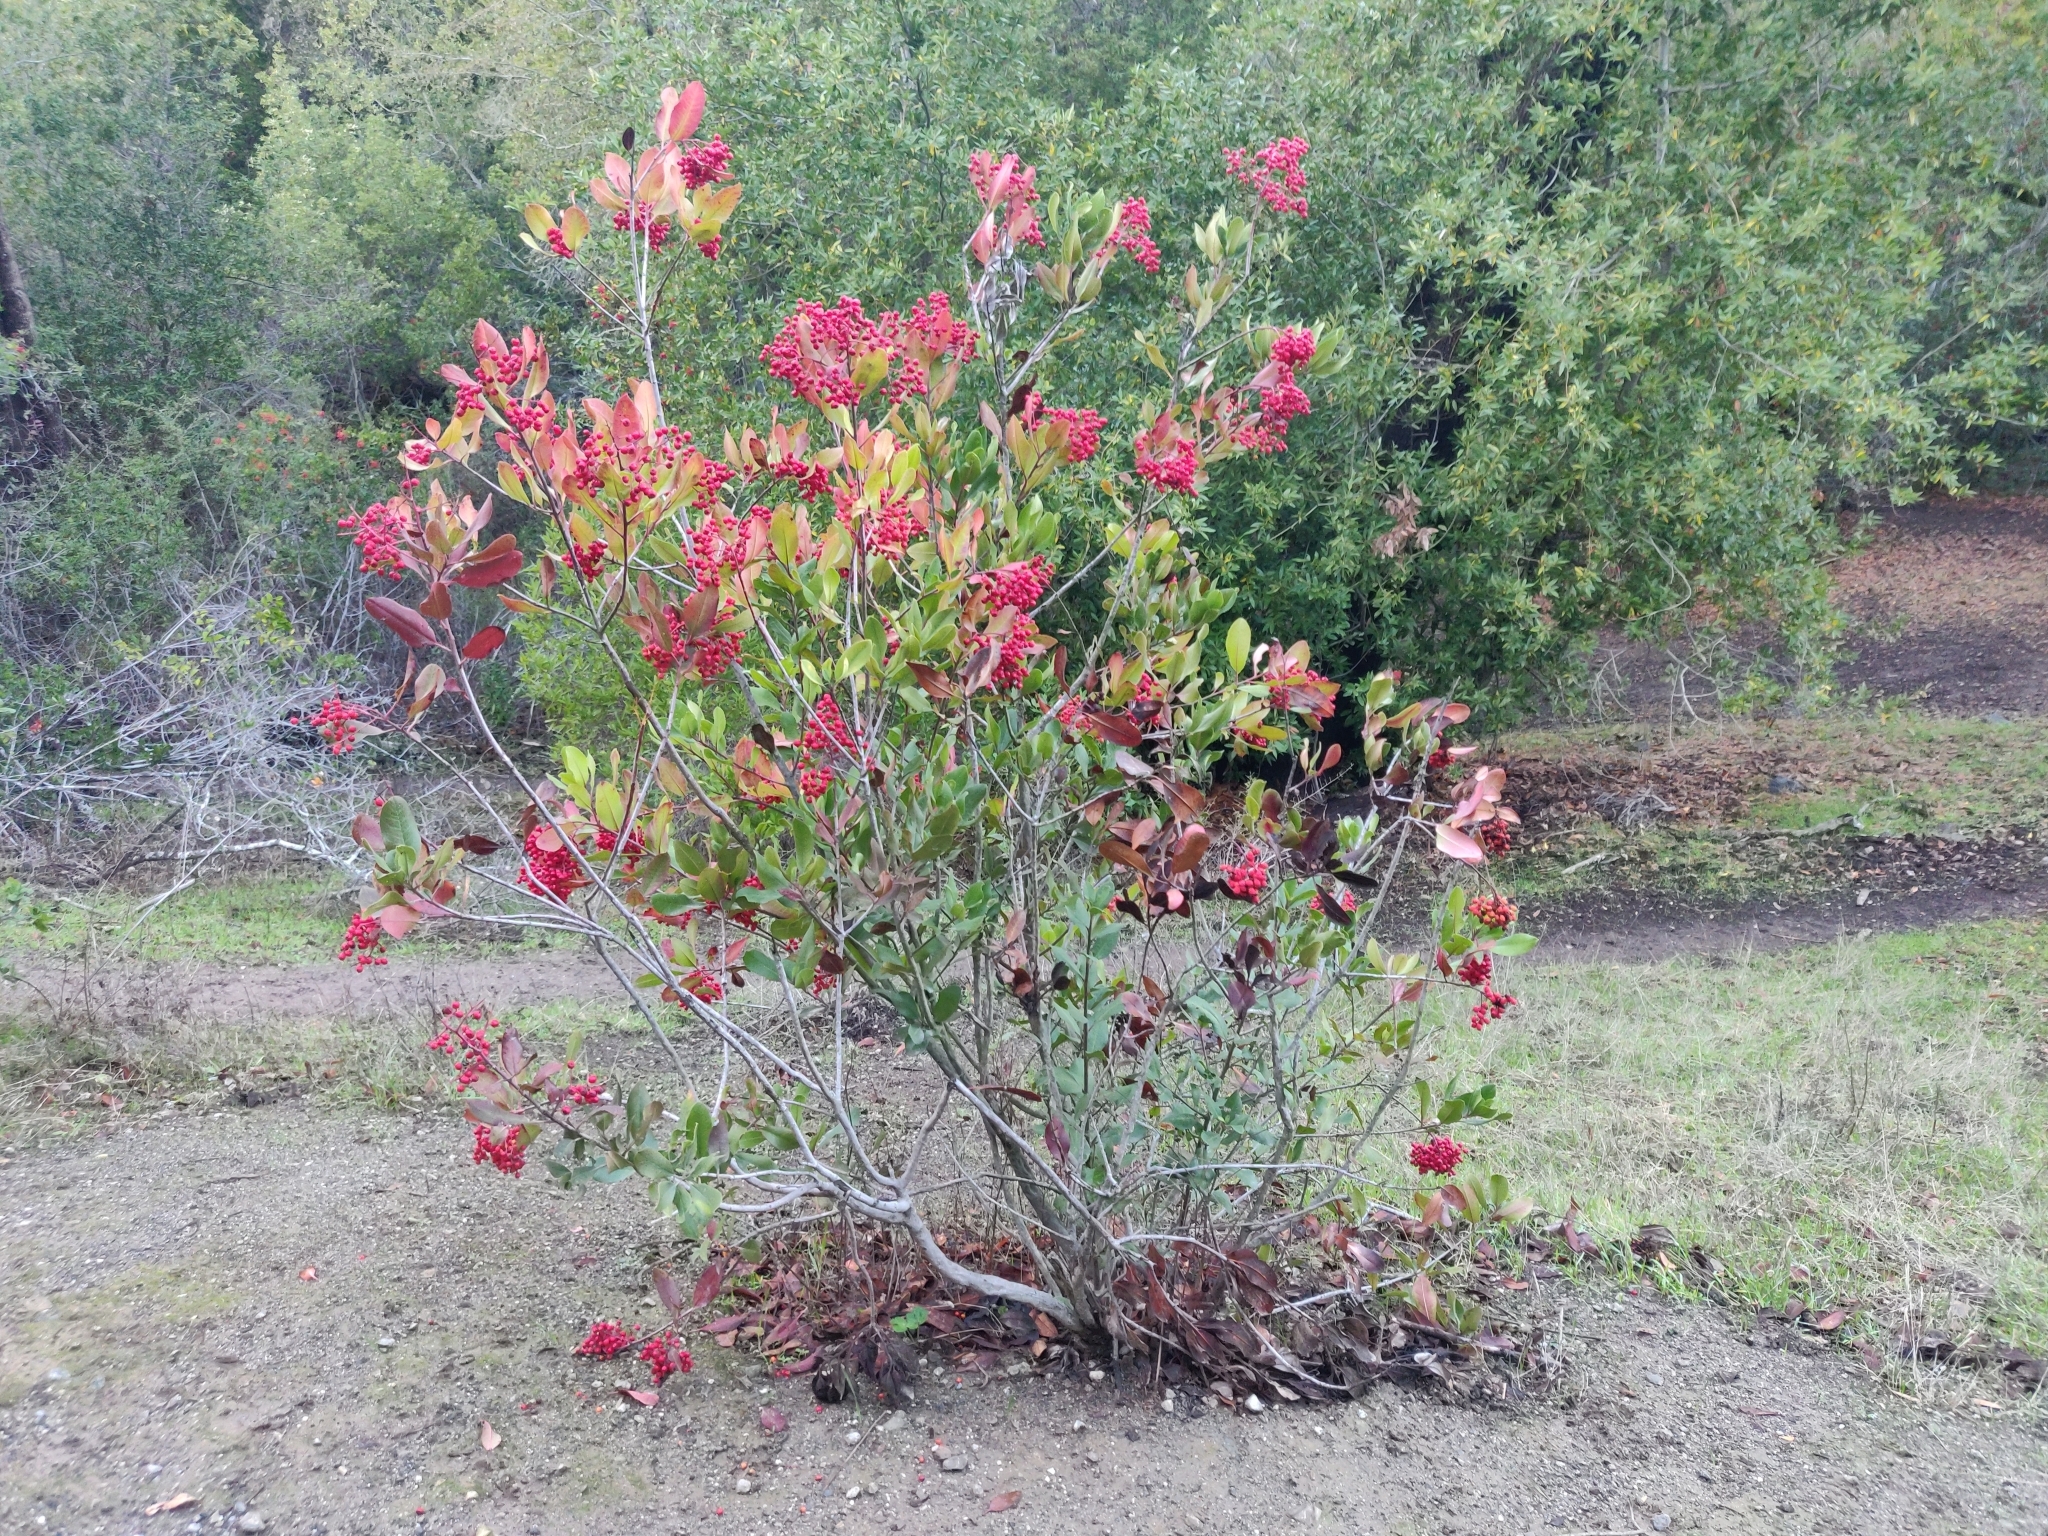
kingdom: Plantae
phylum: Tracheophyta
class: Magnoliopsida
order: Rosales
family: Rosaceae
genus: Heteromeles
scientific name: Heteromeles arbutifolia
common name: California-holly
